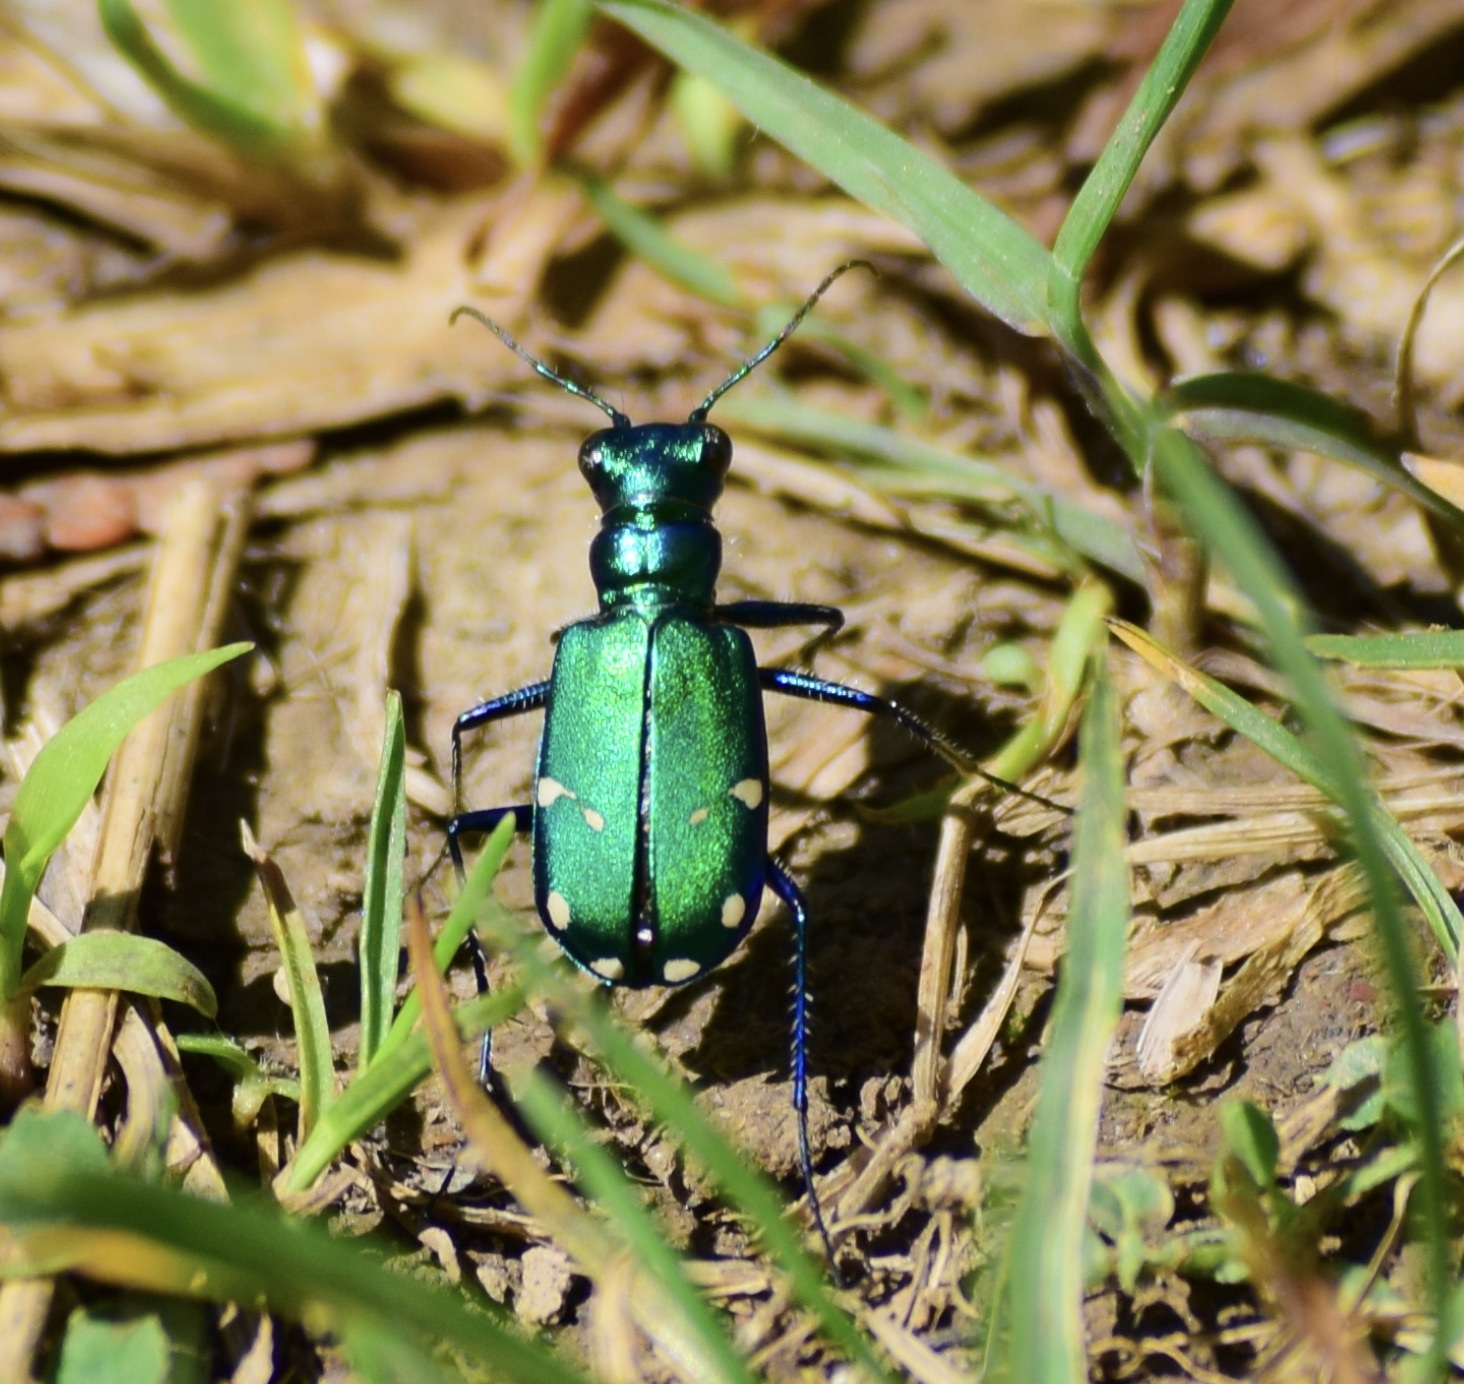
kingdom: Animalia
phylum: Arthropoda
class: Insecta
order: Coleoptera
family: Carabidae
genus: Cicindela
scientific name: Cicindela sexguttata
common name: Six-spotted tiger beetle
